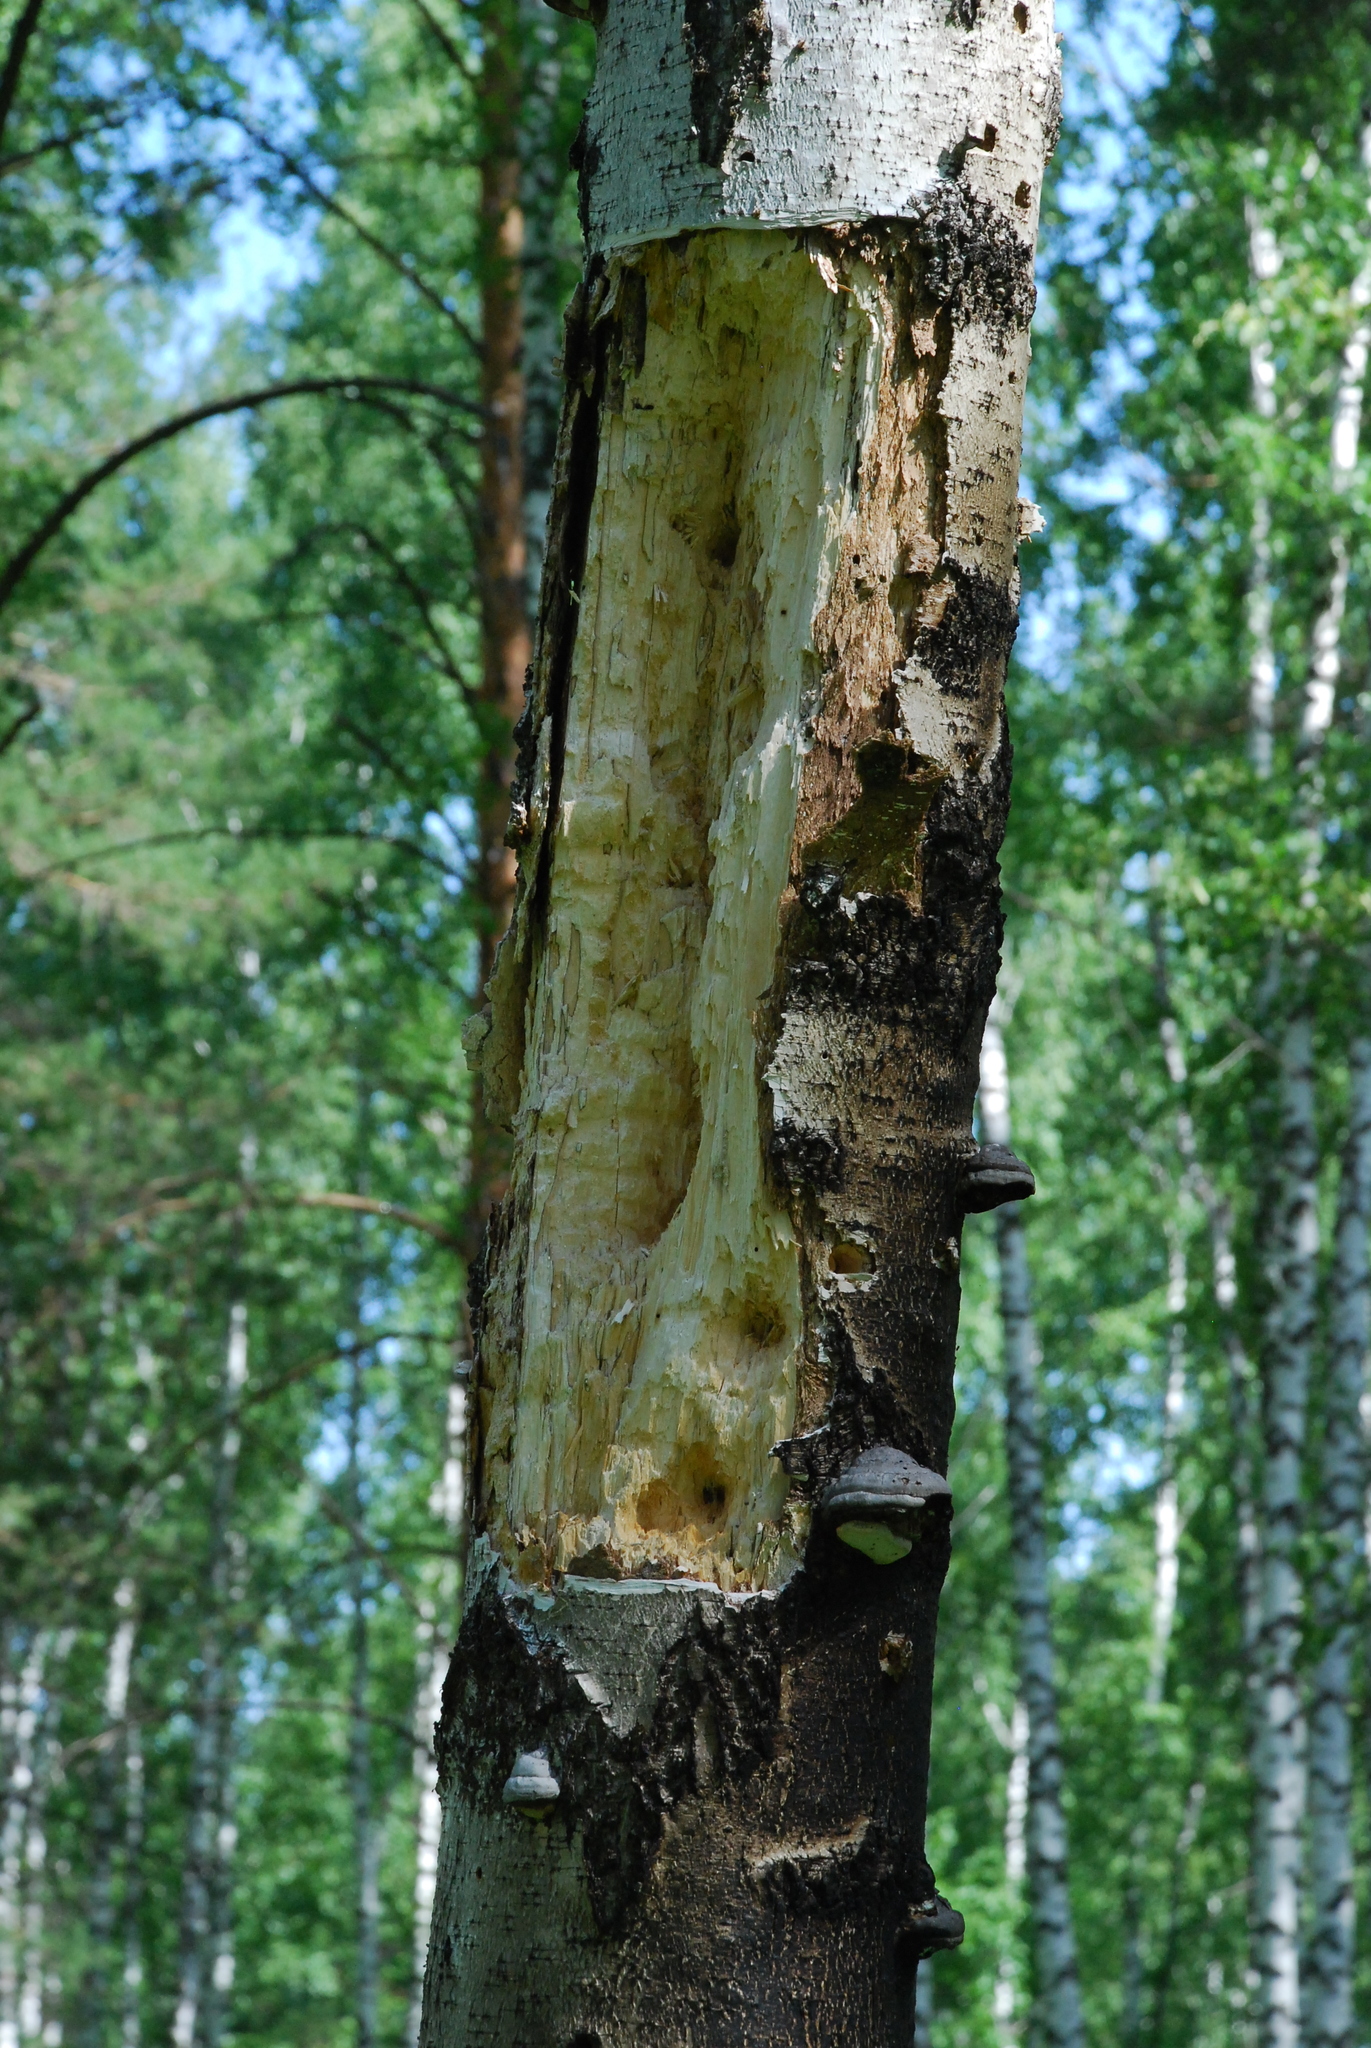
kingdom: Animalia
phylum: Chordata
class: Aves
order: Piciformes
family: Picidae
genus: Dryocopus
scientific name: Dryocopus martius
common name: Black woodpecker
